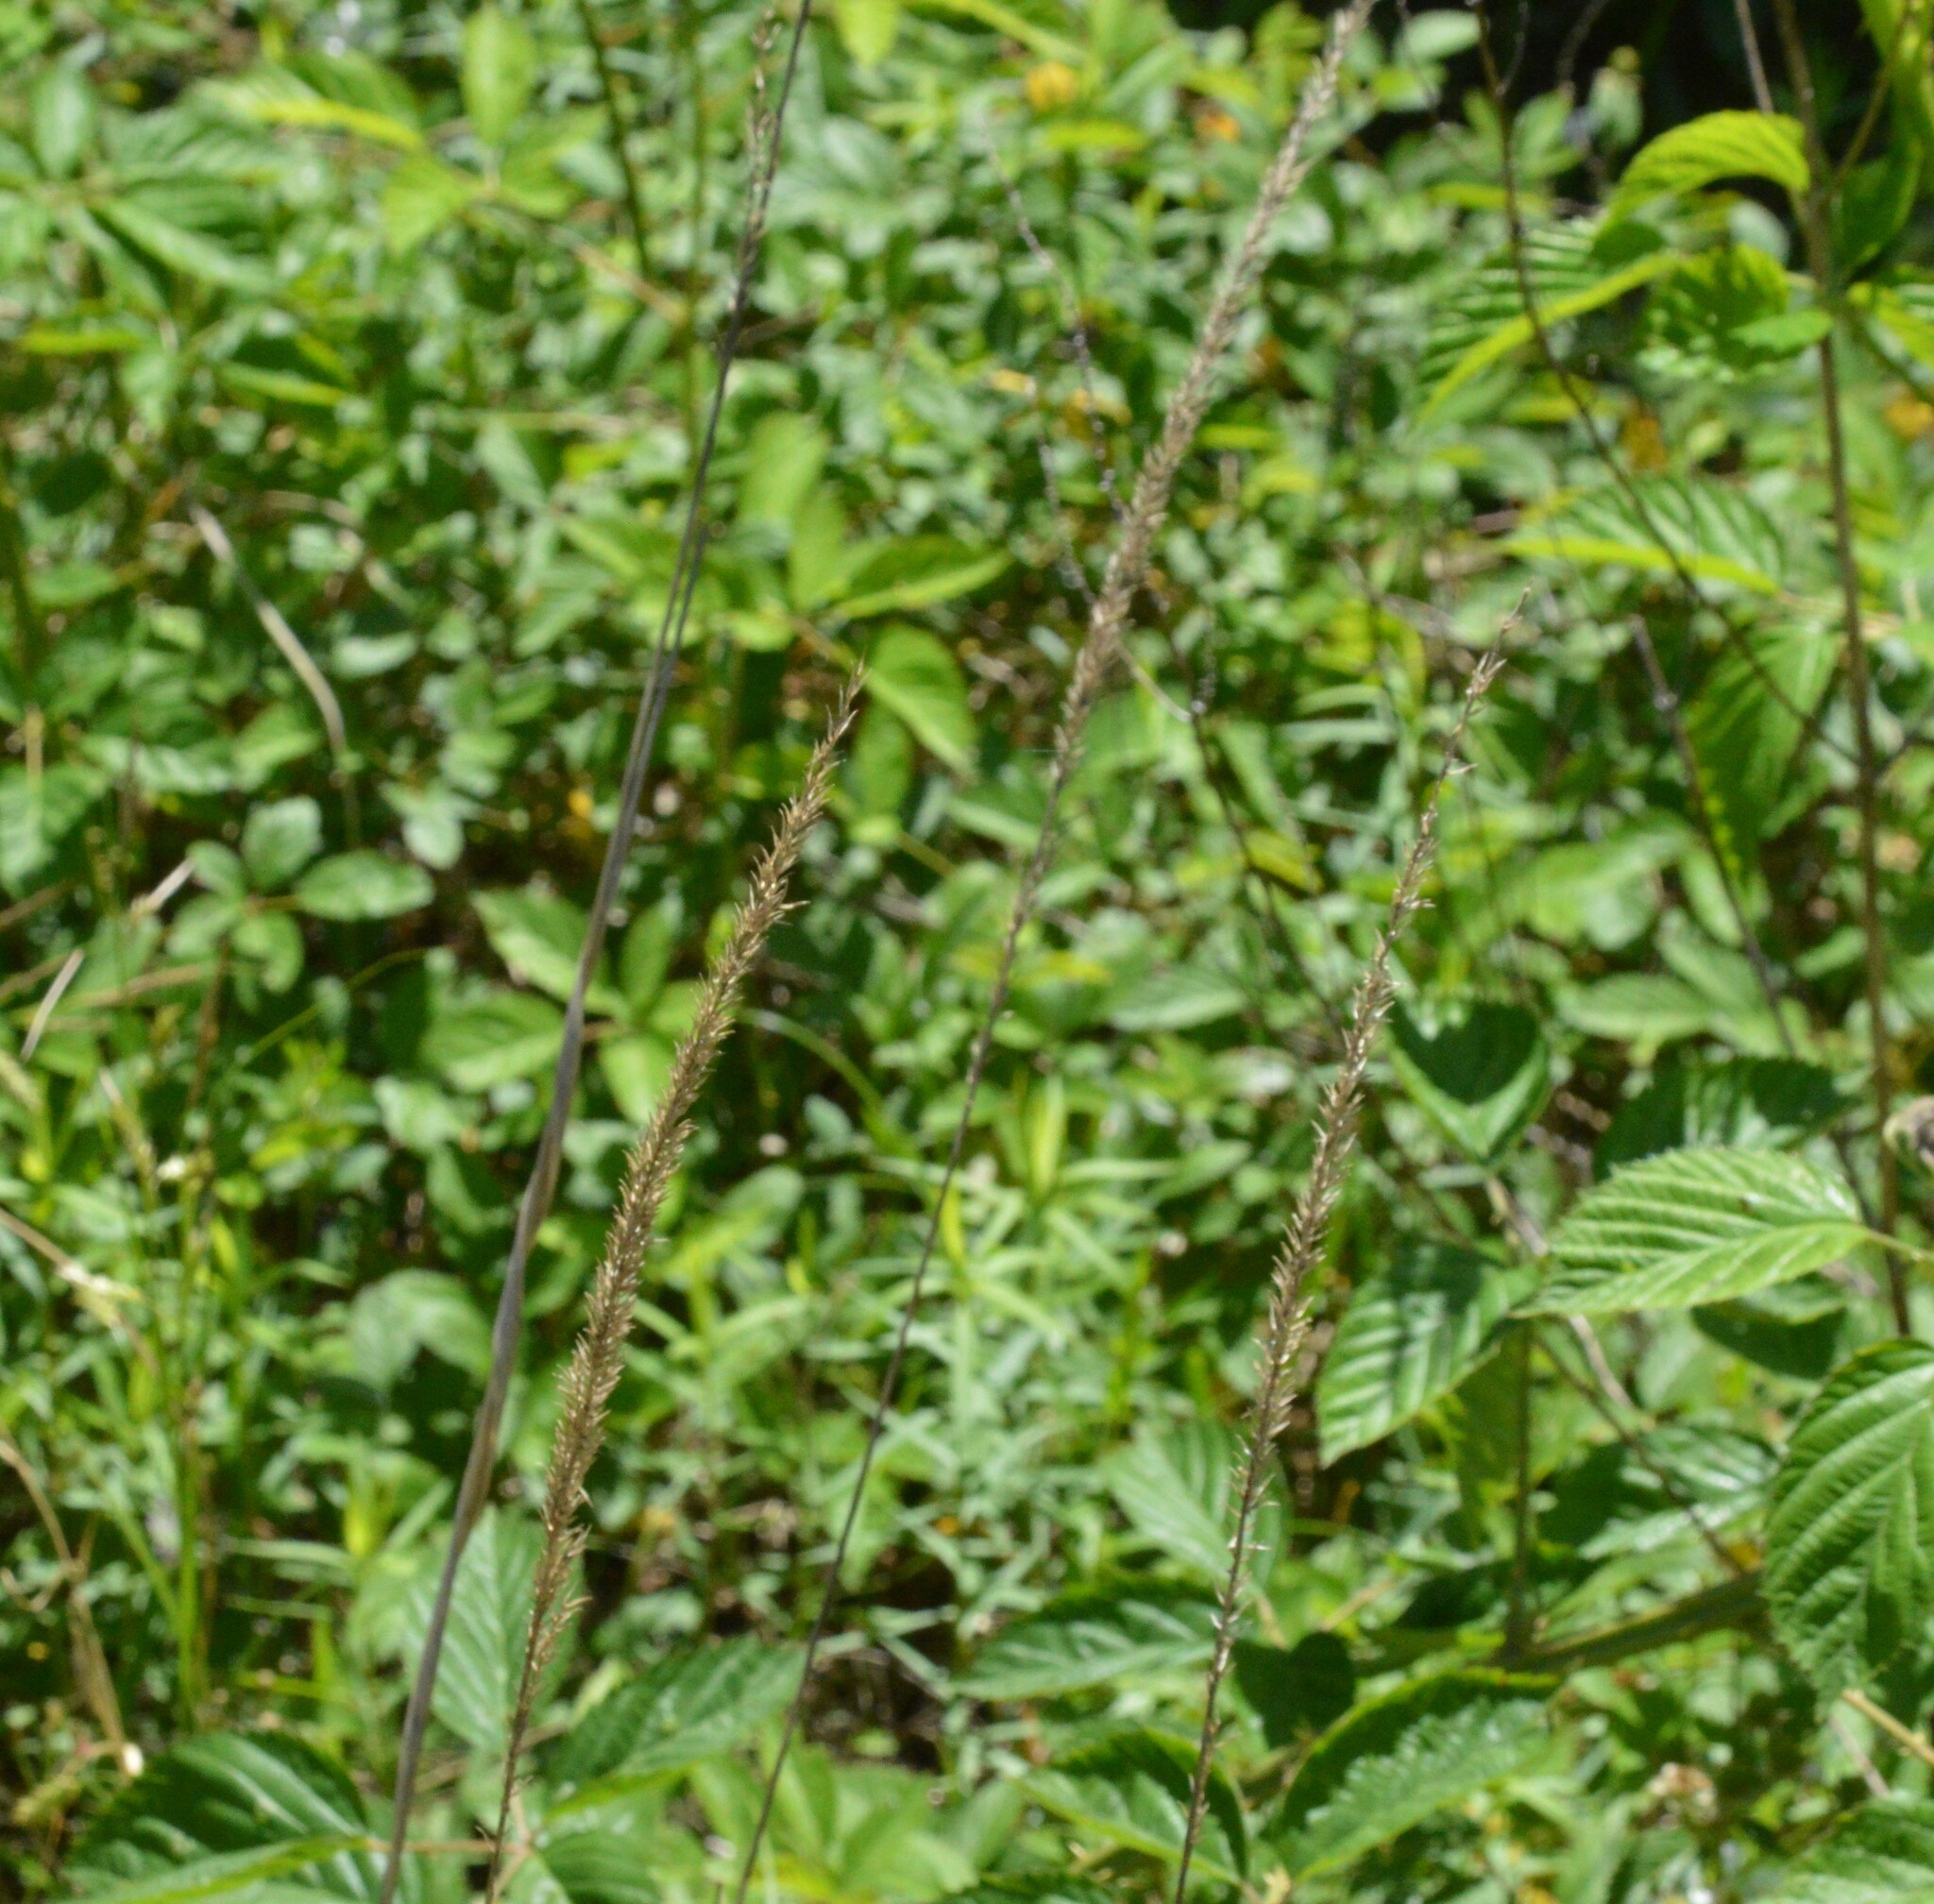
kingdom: Plantae
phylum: Tracheophyta
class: Liliopsida
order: Poales
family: Poaceae
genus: Tridens
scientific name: Tridens strictus
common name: Long-spike tridens
